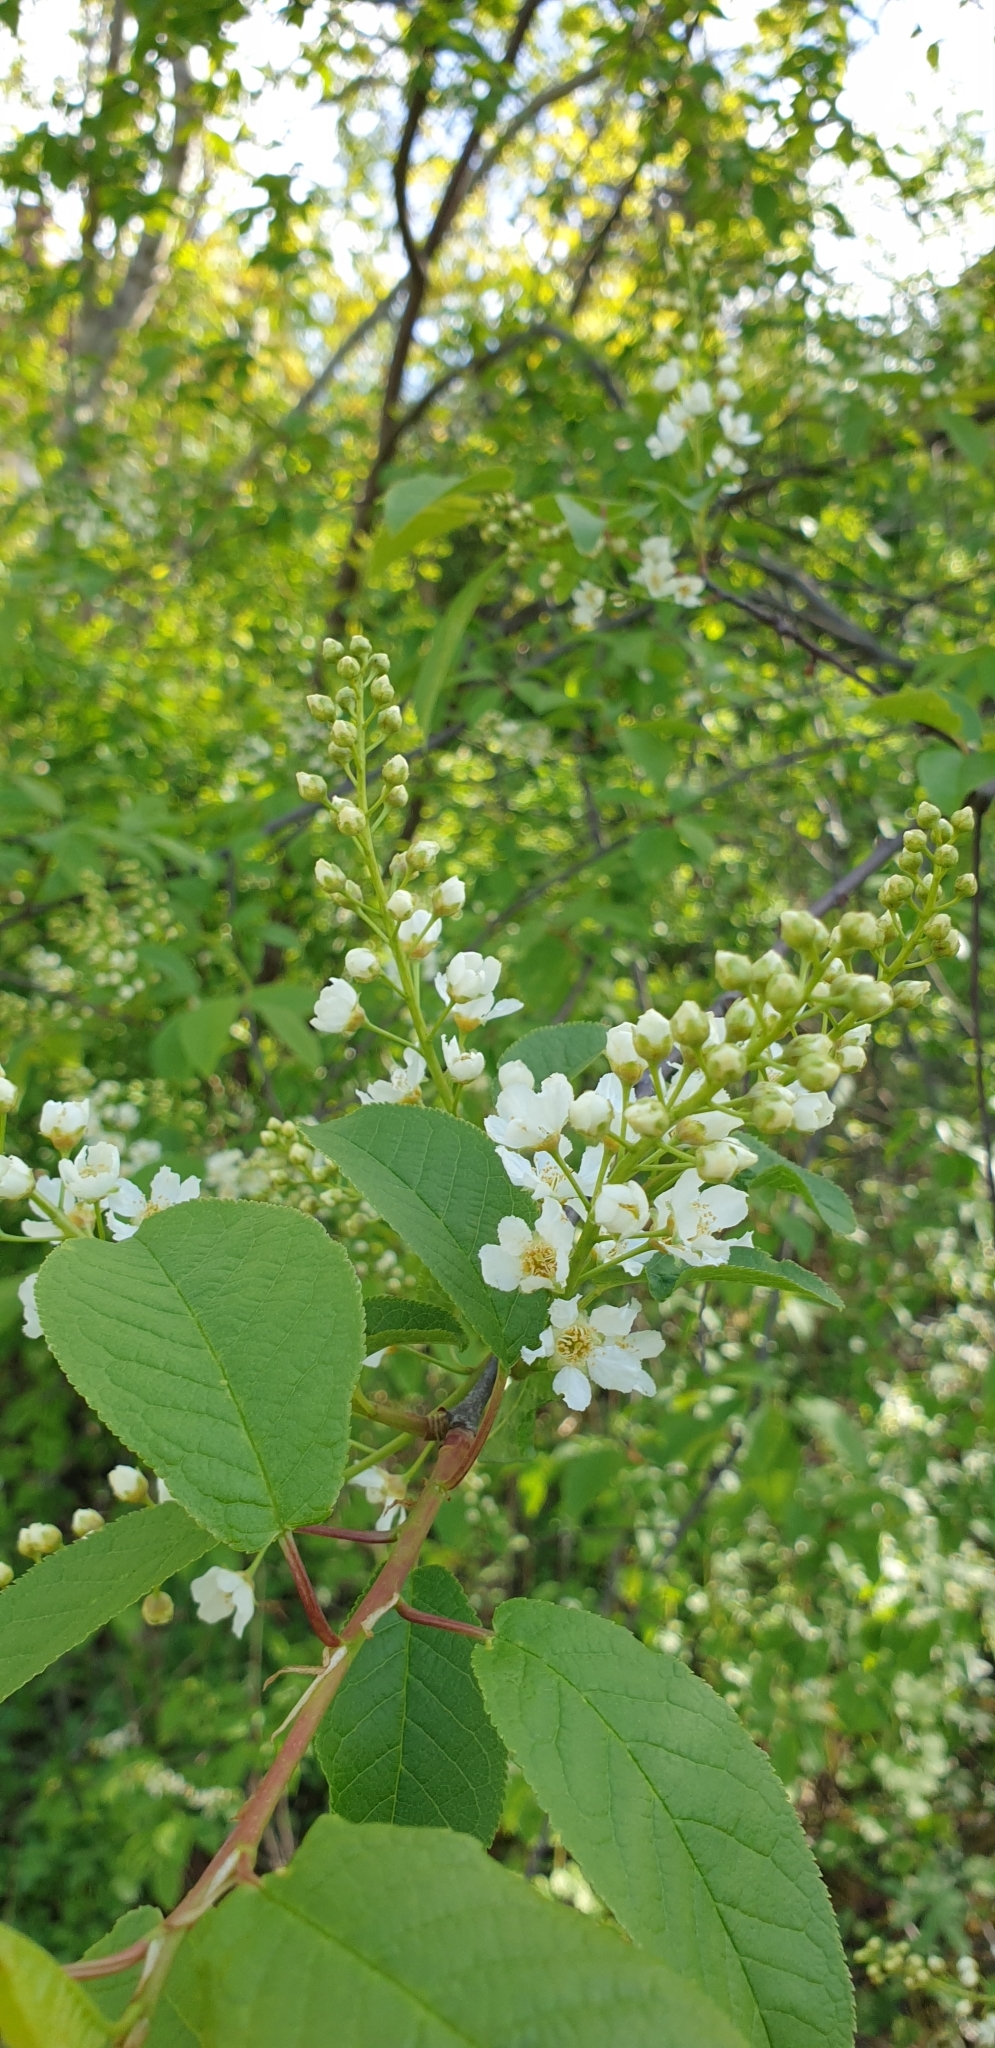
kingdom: Plantae
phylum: Tracheophyta
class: Magnoliopsida
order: Rosales
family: Rosaceae
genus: Prunus
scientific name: Prunus padus
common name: Bird cherry
